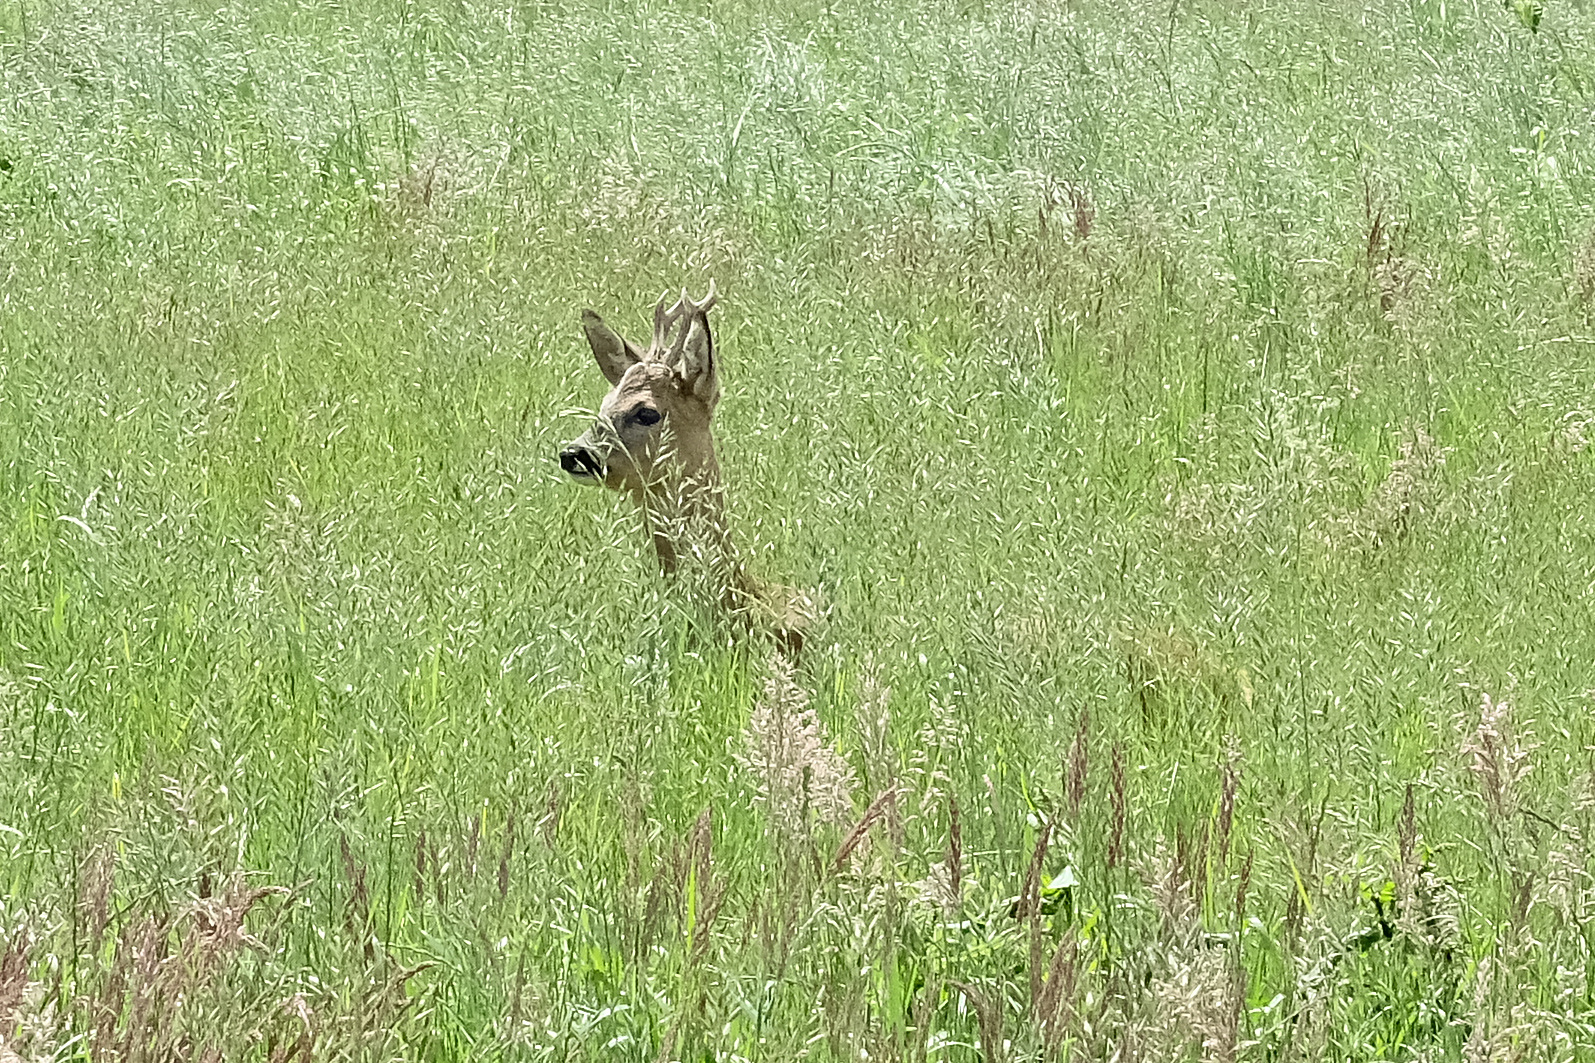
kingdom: Animalia
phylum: Chordata
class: Mammalia
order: Artiodactyla
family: Cervidae
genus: Capreolus
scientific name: Capreolus capreolus
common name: Western roe deer
